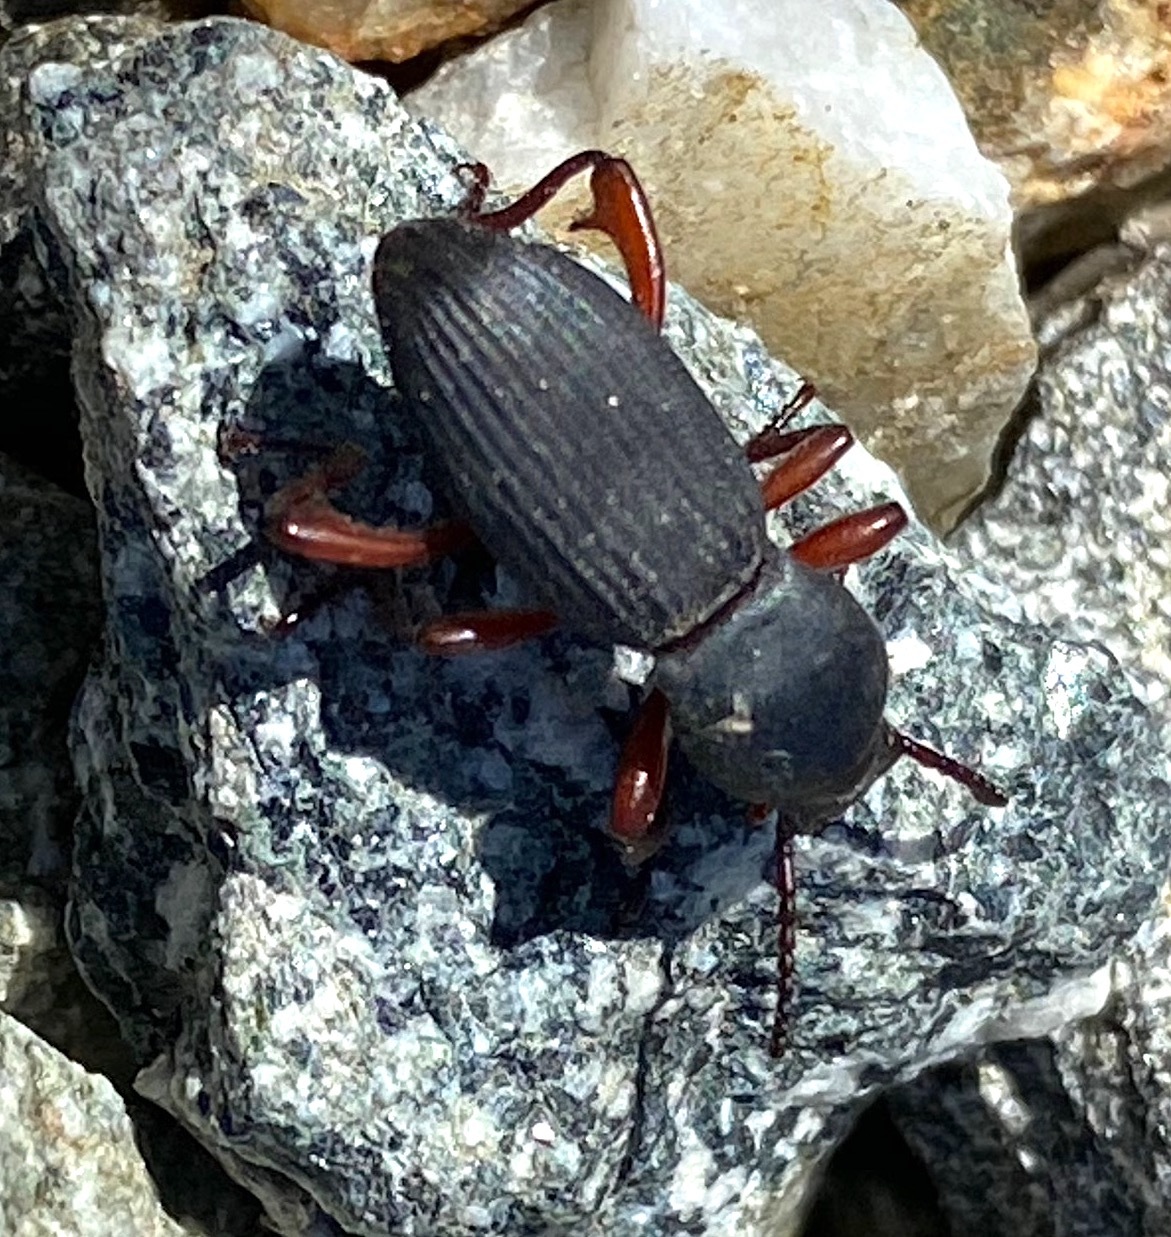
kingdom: Animalia
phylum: Arthropoda
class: Insecta
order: Coleoptera
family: Tenebrionidae
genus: Argoporis
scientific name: Argoporis apicalis
